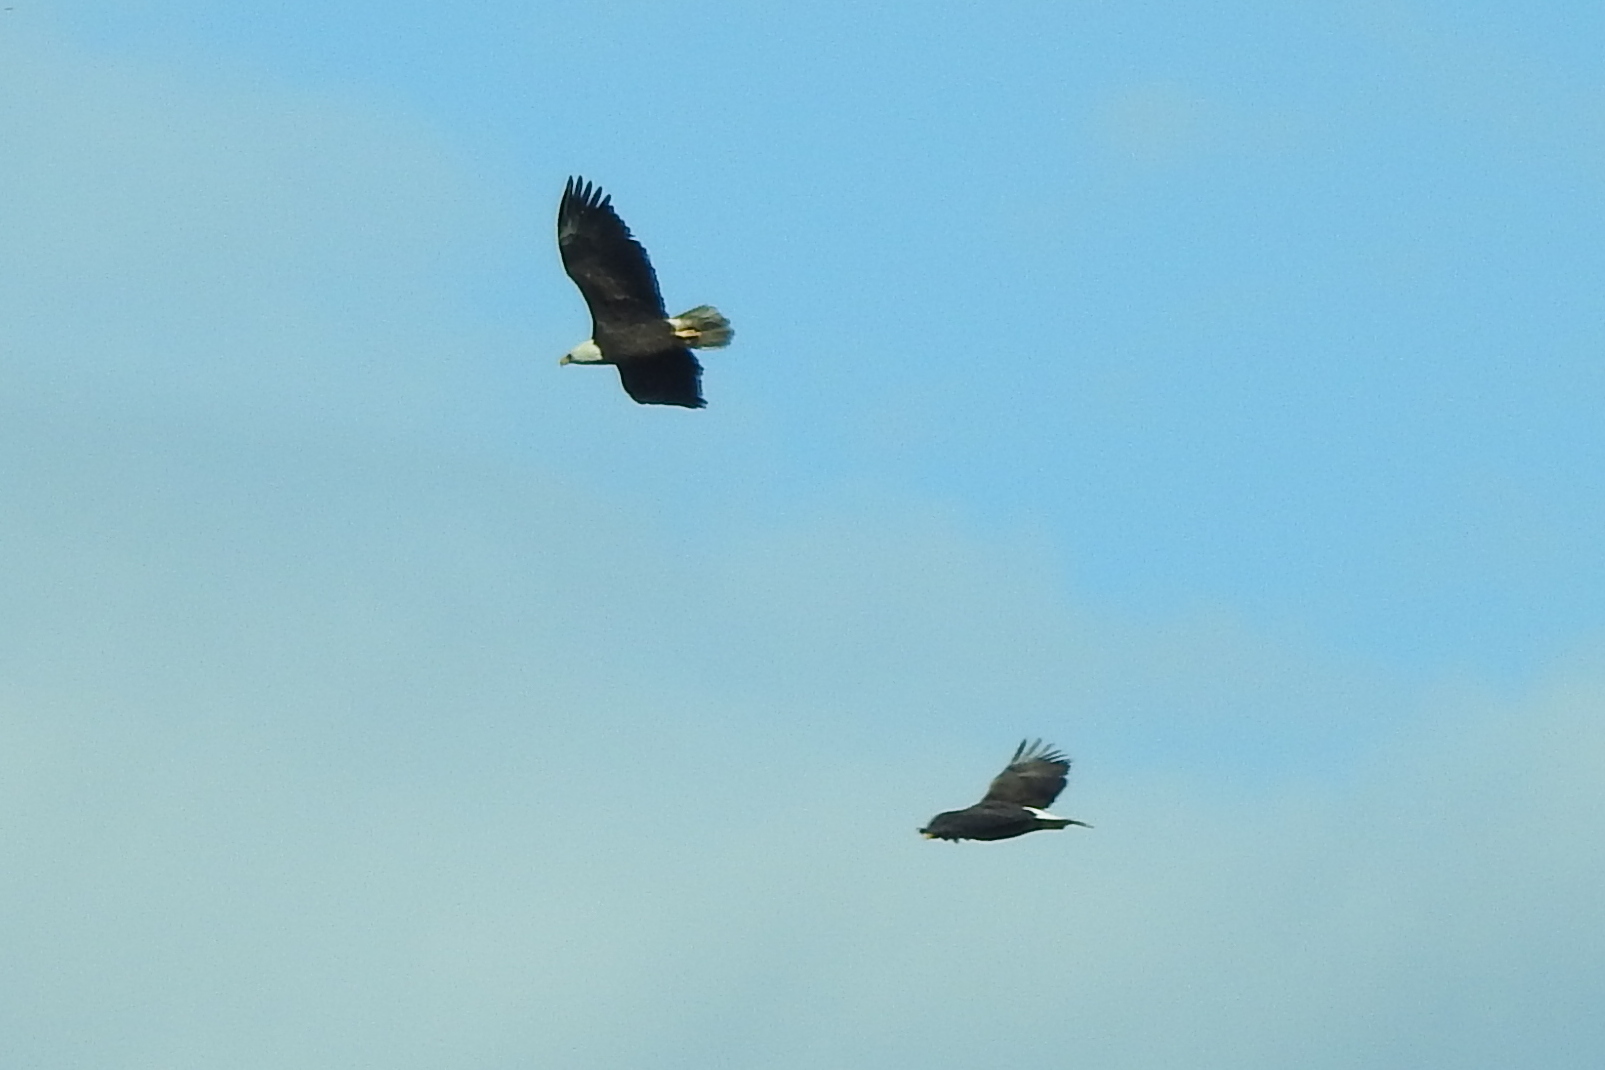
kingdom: Animalia
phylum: Chordata
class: Aves
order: Accipitriformes
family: Accipitridae
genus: Haliaeetus
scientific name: Haliaeetus leucocephalus
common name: Bald eagle
